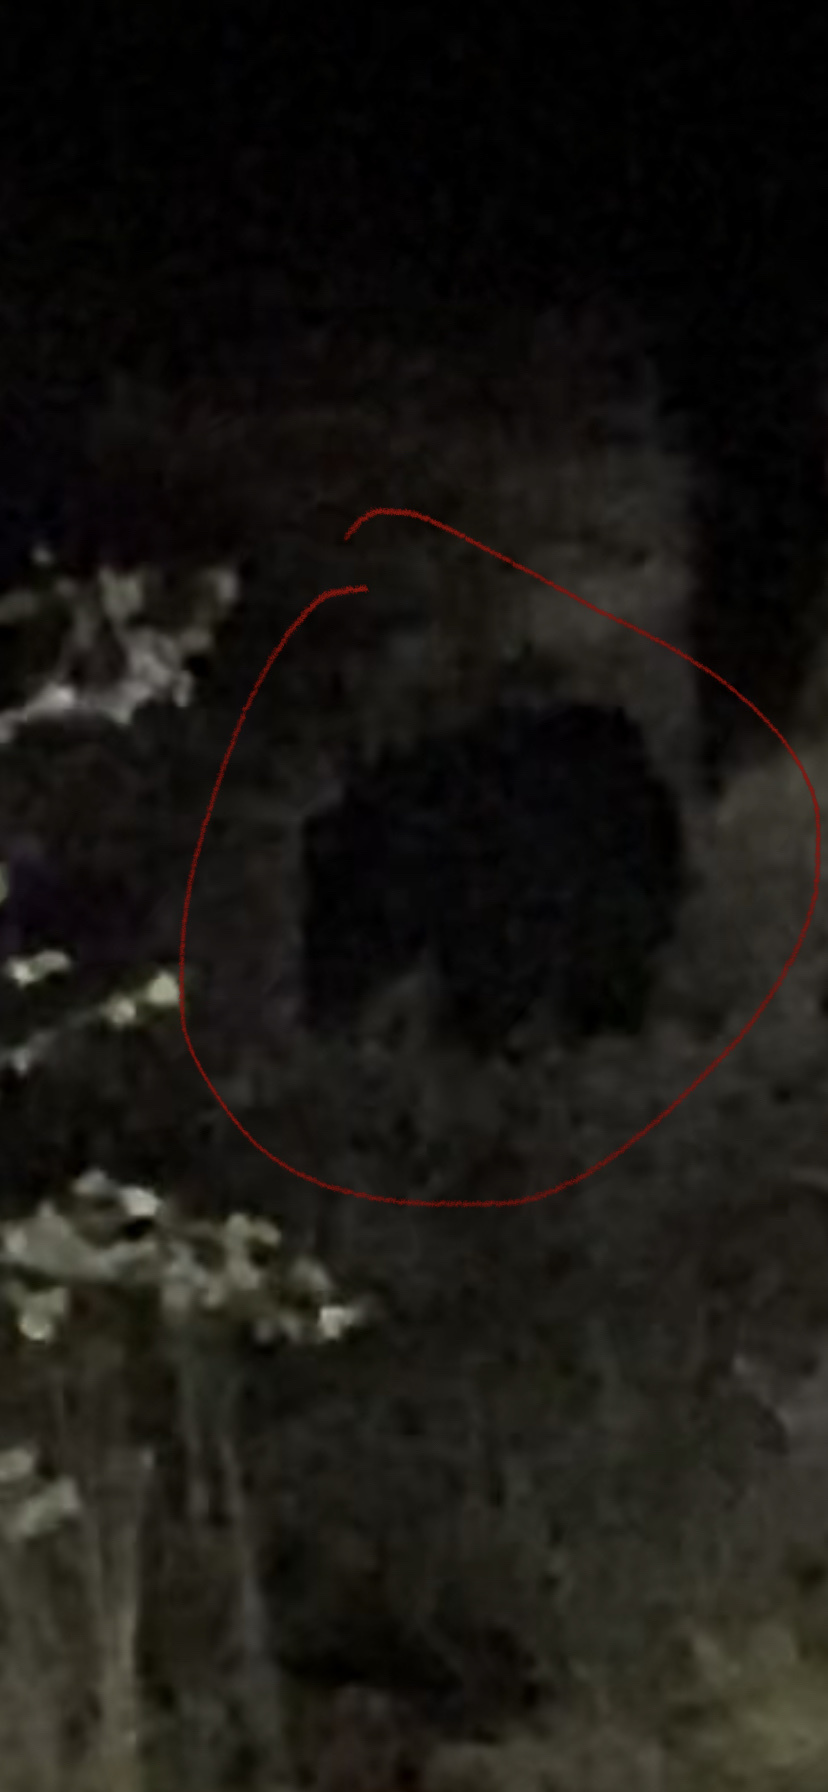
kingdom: Animalia
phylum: Chordata
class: Mammalia
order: Carnivora
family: Ursidae
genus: Ursus
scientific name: Ursus americanus
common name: American black bear
